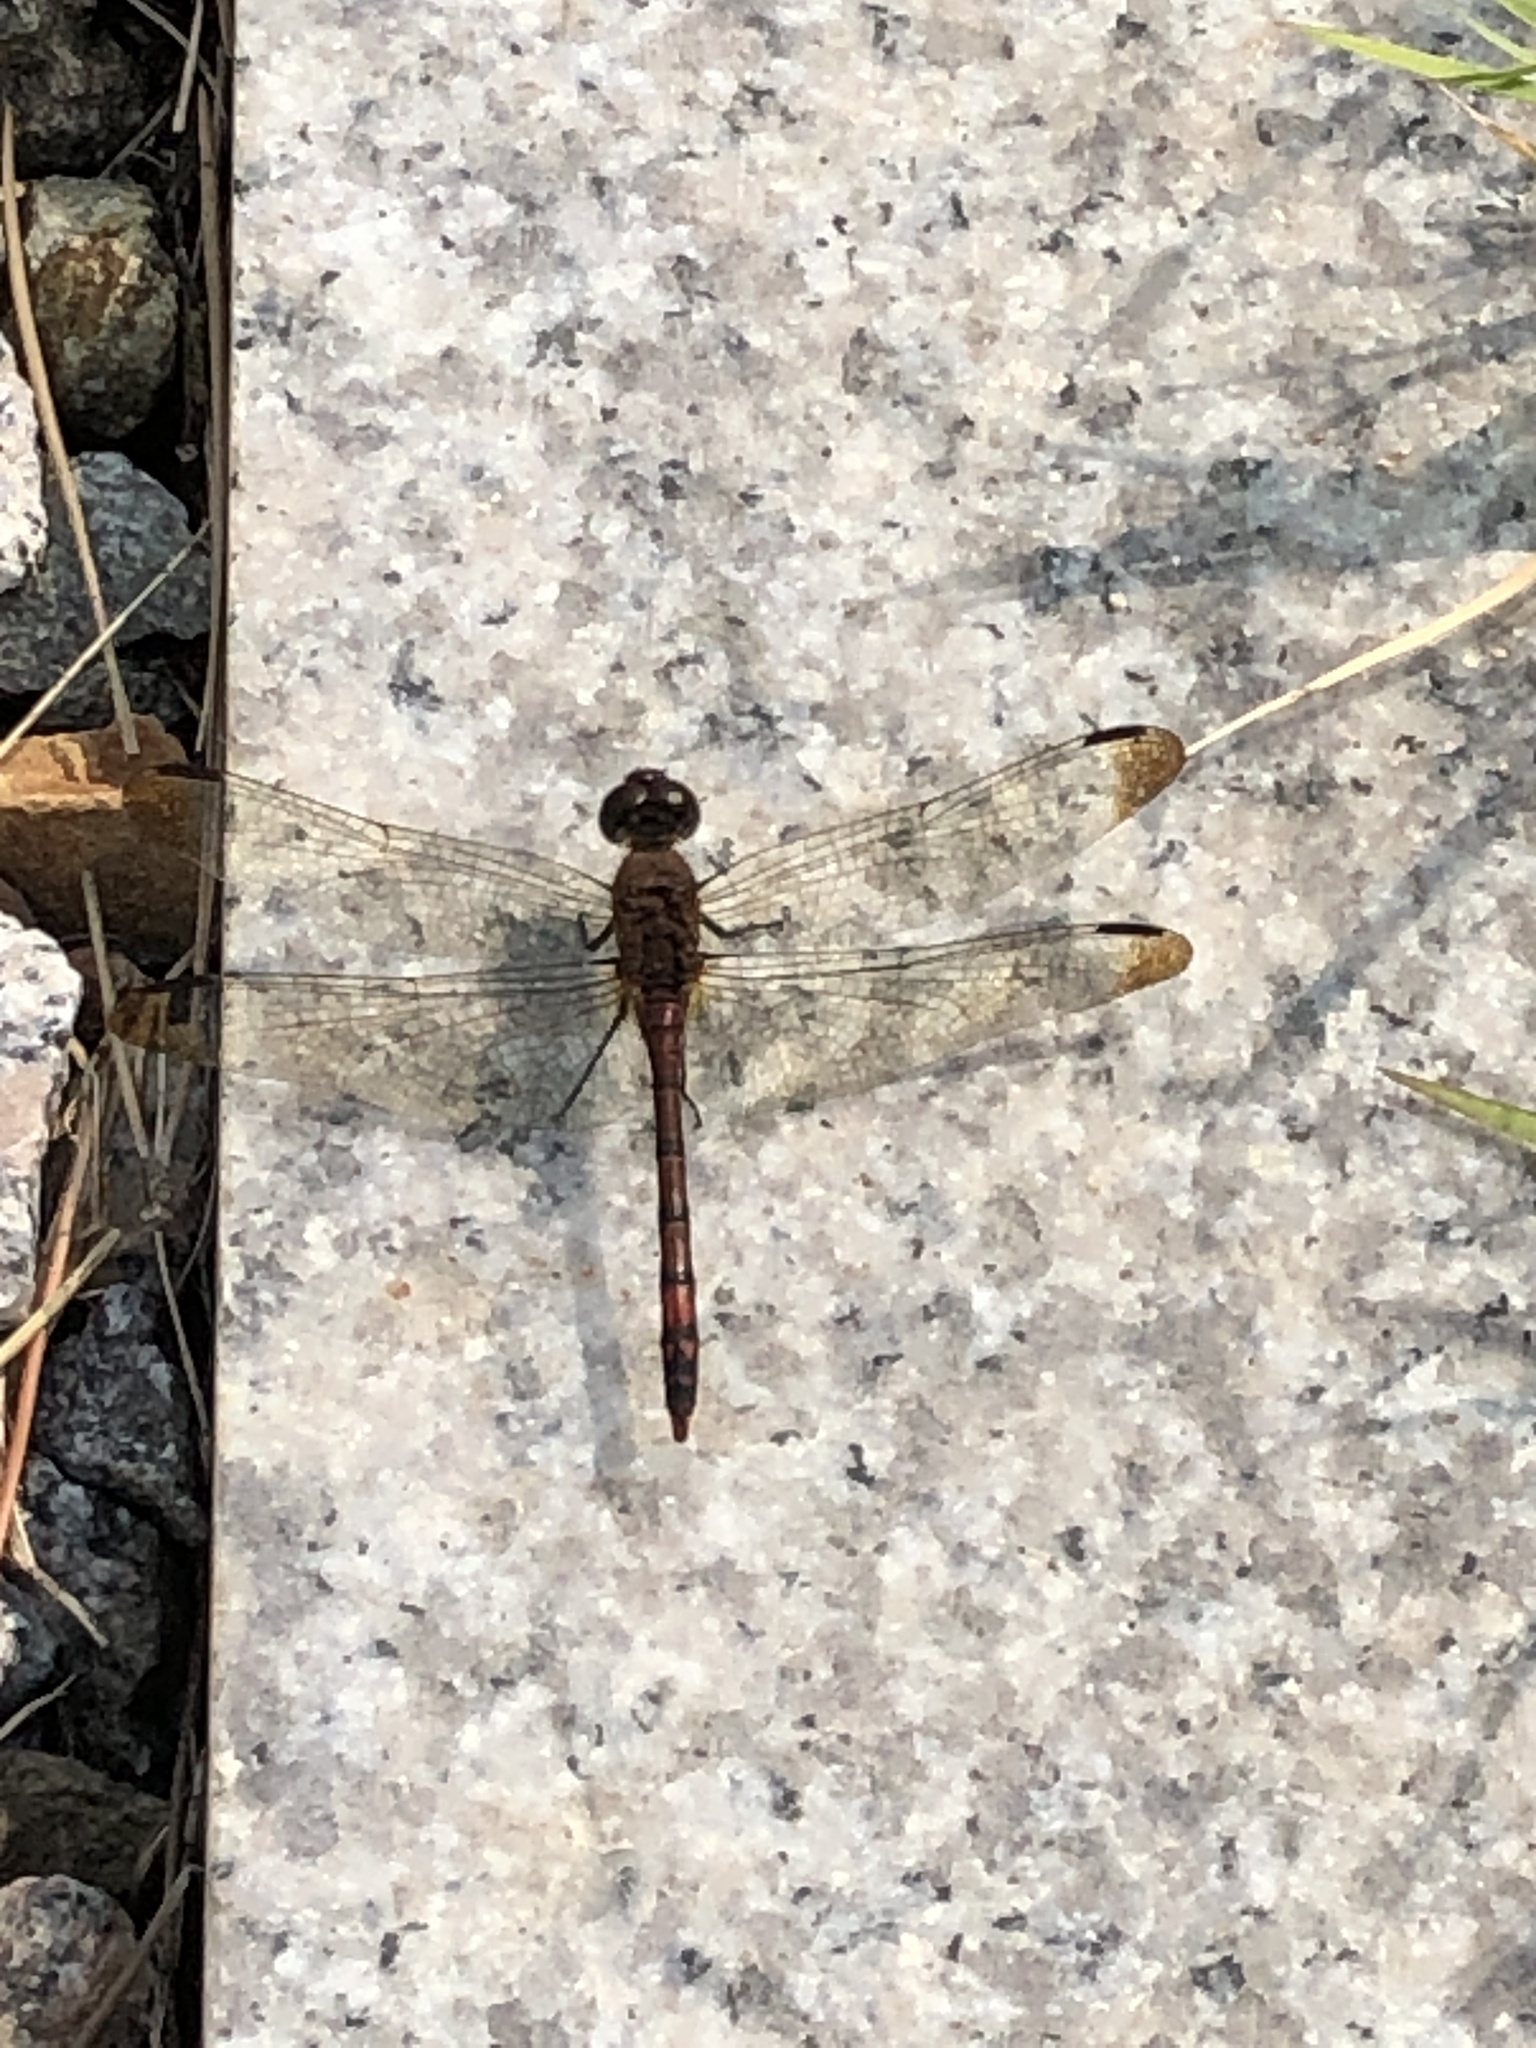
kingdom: Animalia
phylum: Arthropoda
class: Insecta
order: Odonata
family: Libellulidae
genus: Sympetrum
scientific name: Sympetrum infuscatum
